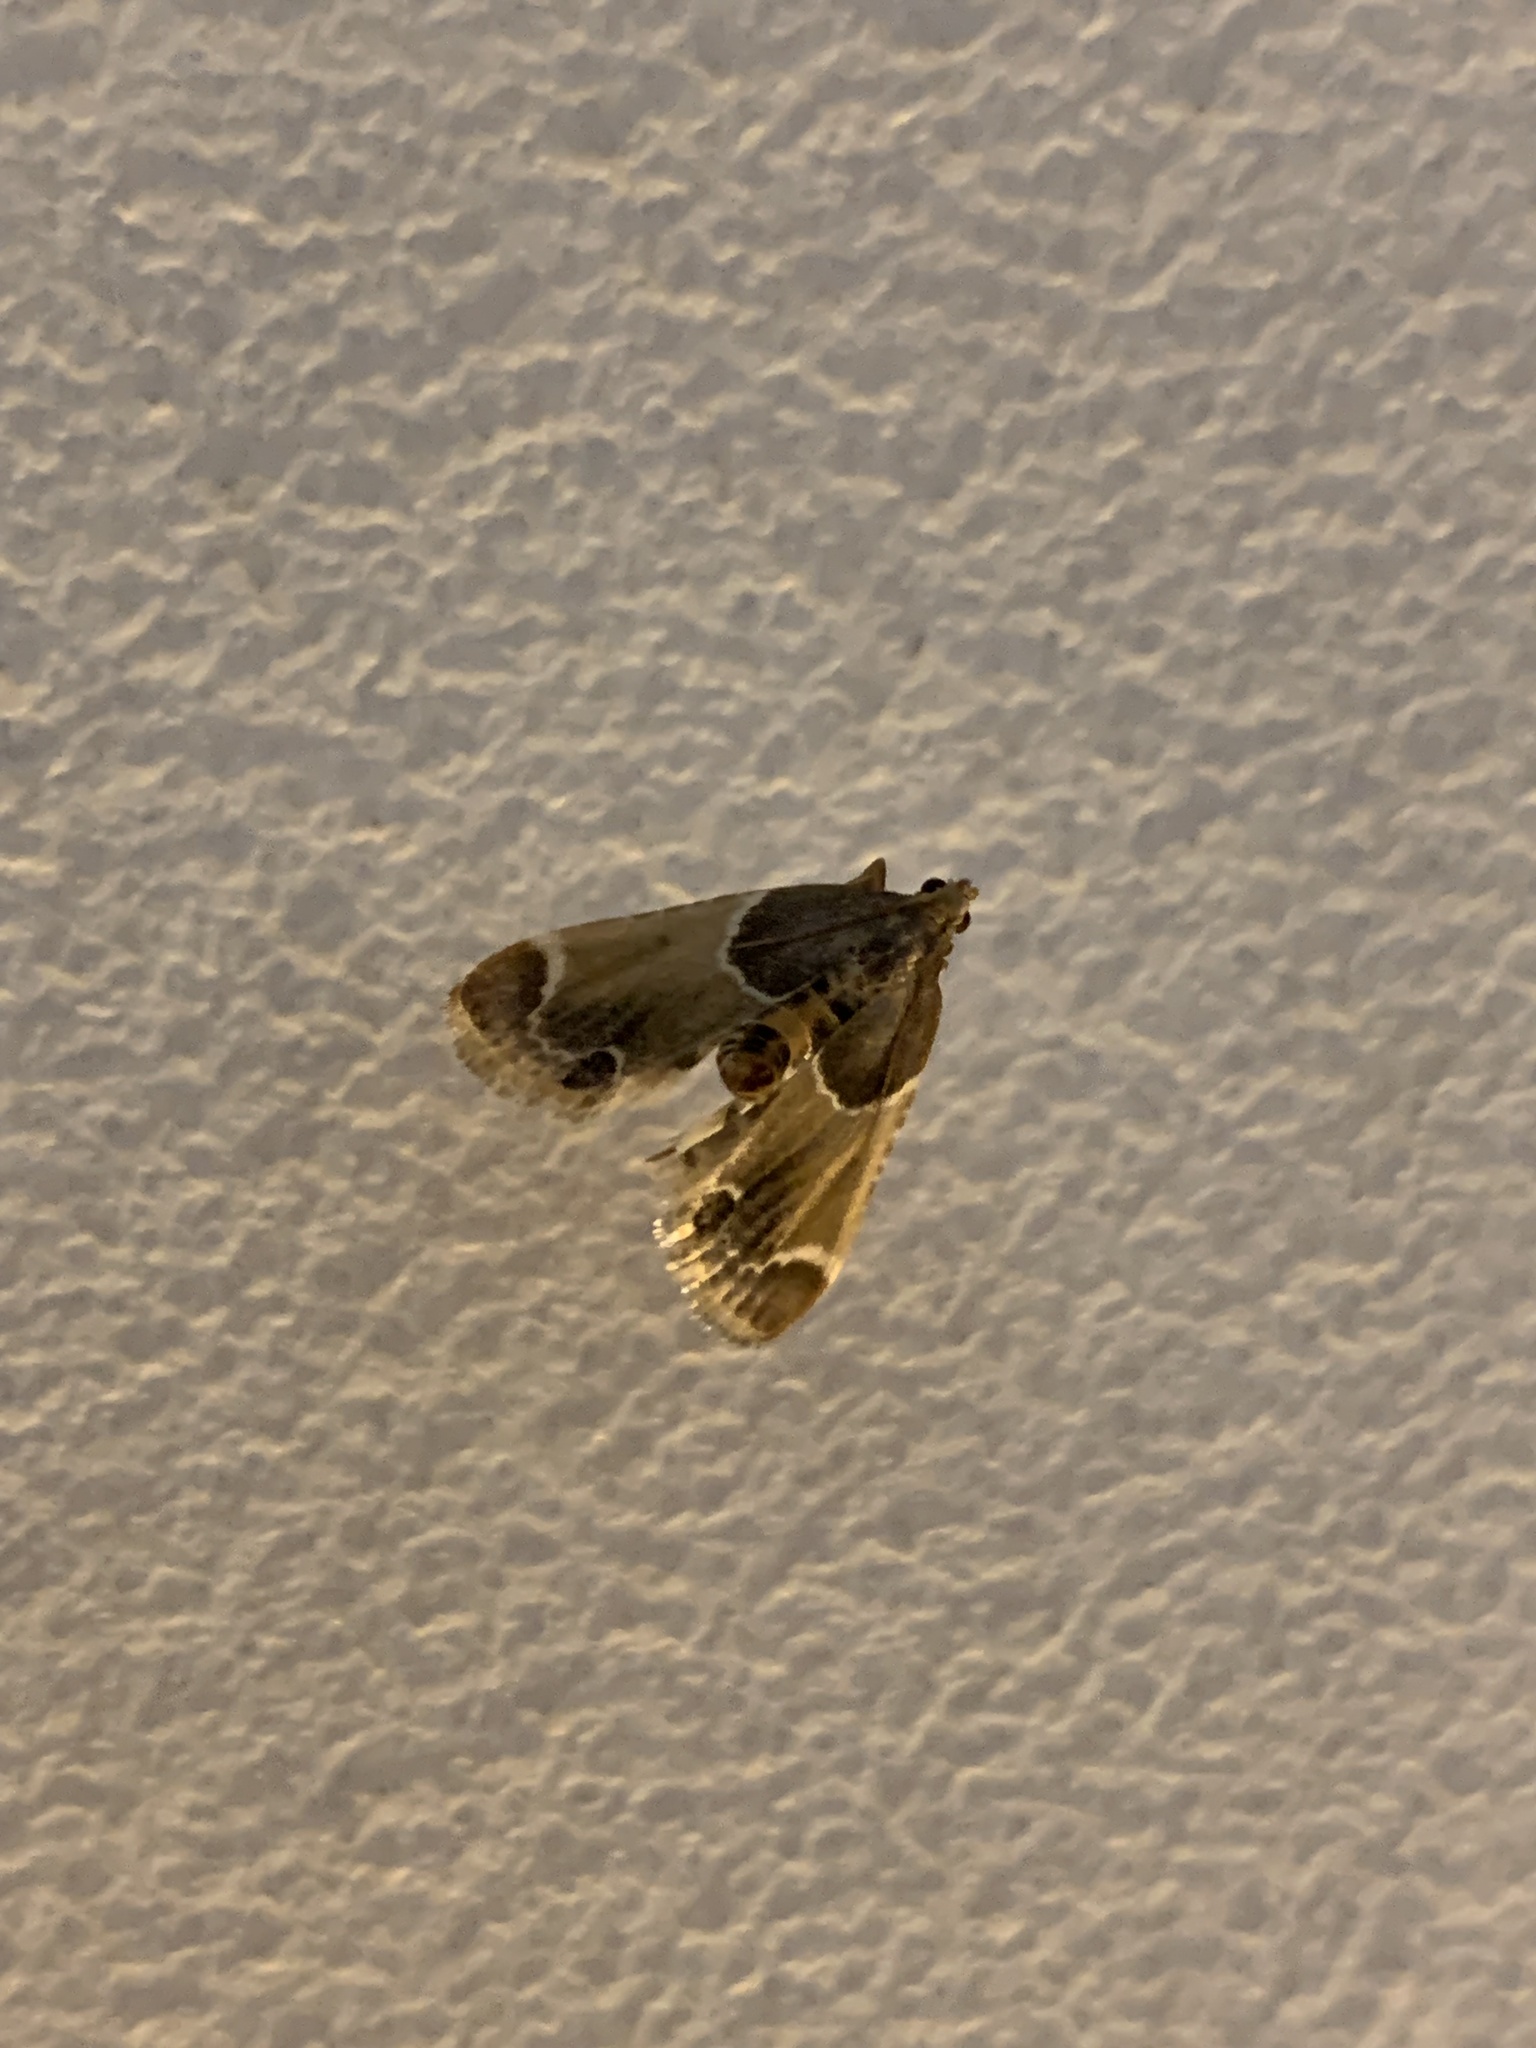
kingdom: Animalia
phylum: Arthropoda
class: Insecta
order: Lepidoptera
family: Pyralidae
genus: Pyralis
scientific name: Pyralis farinalis
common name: Meal moth
